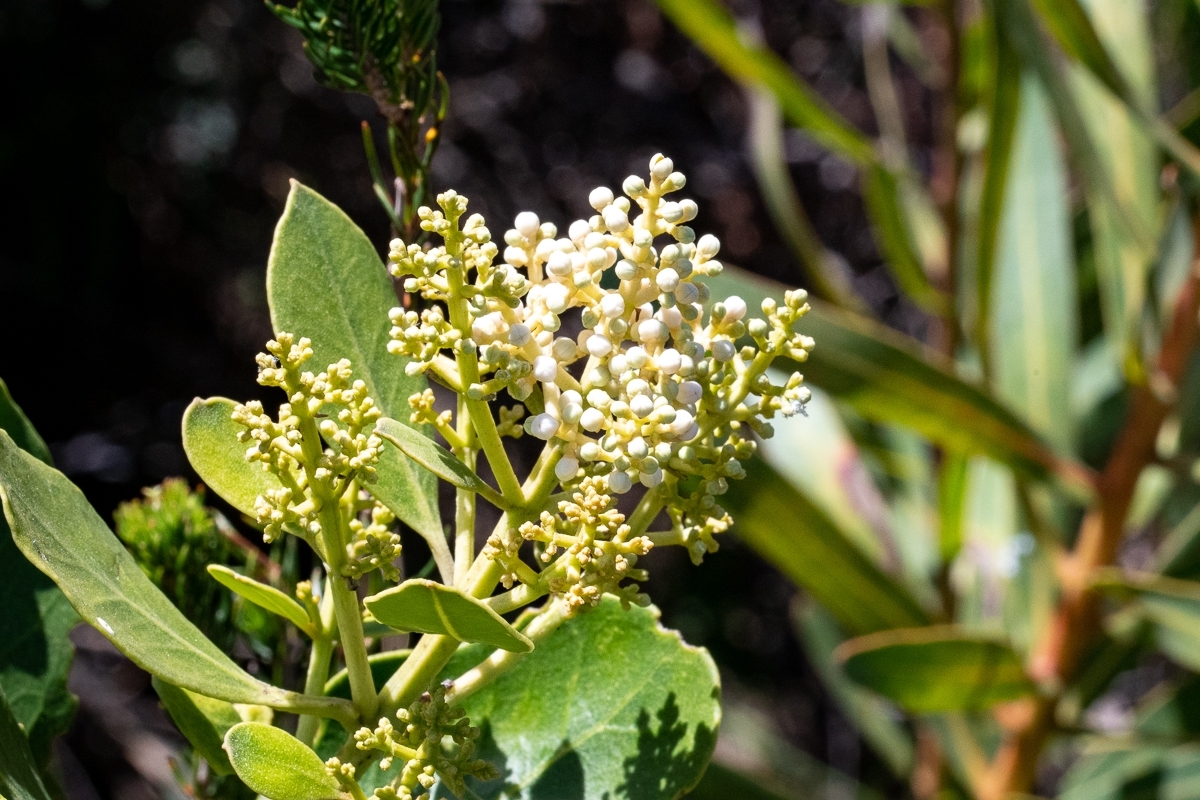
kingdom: Plantae
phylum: Tracheophyta
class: Magnoliopsida
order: Lamiales
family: Oleaceae
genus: Olea
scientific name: Olea capensis
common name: Black ironwood
